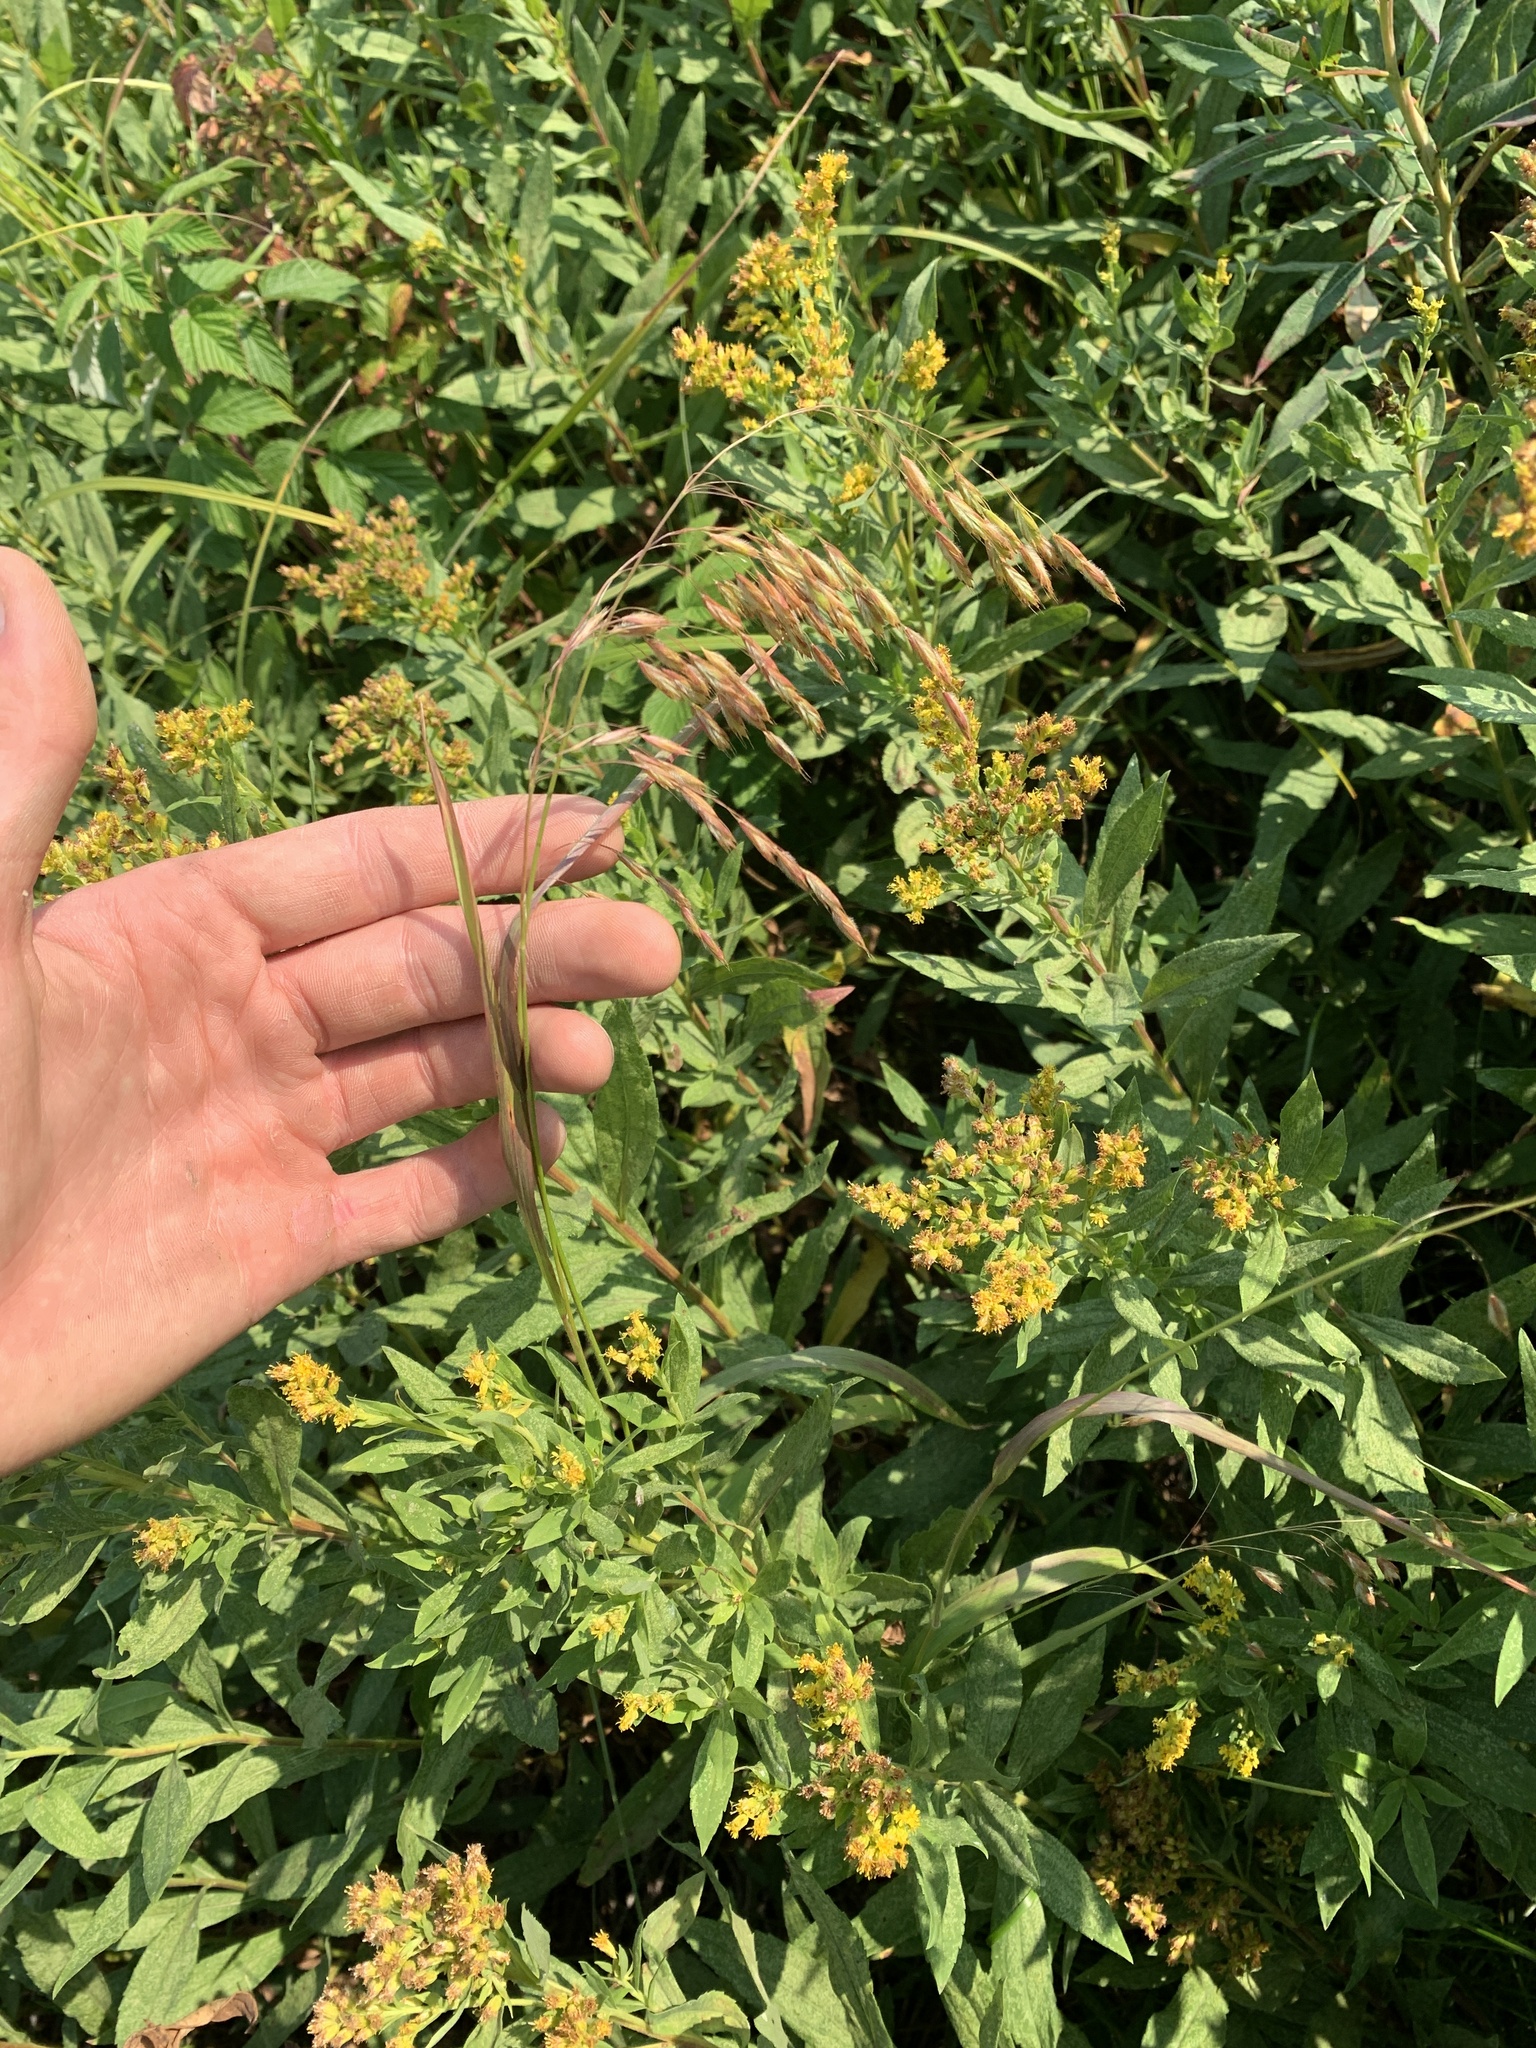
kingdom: Plantae
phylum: Tracheophyta
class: Liliopsida
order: Poales
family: Poaceae
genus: Bromus
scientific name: Bromus ciliatus
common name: Fringe brome
